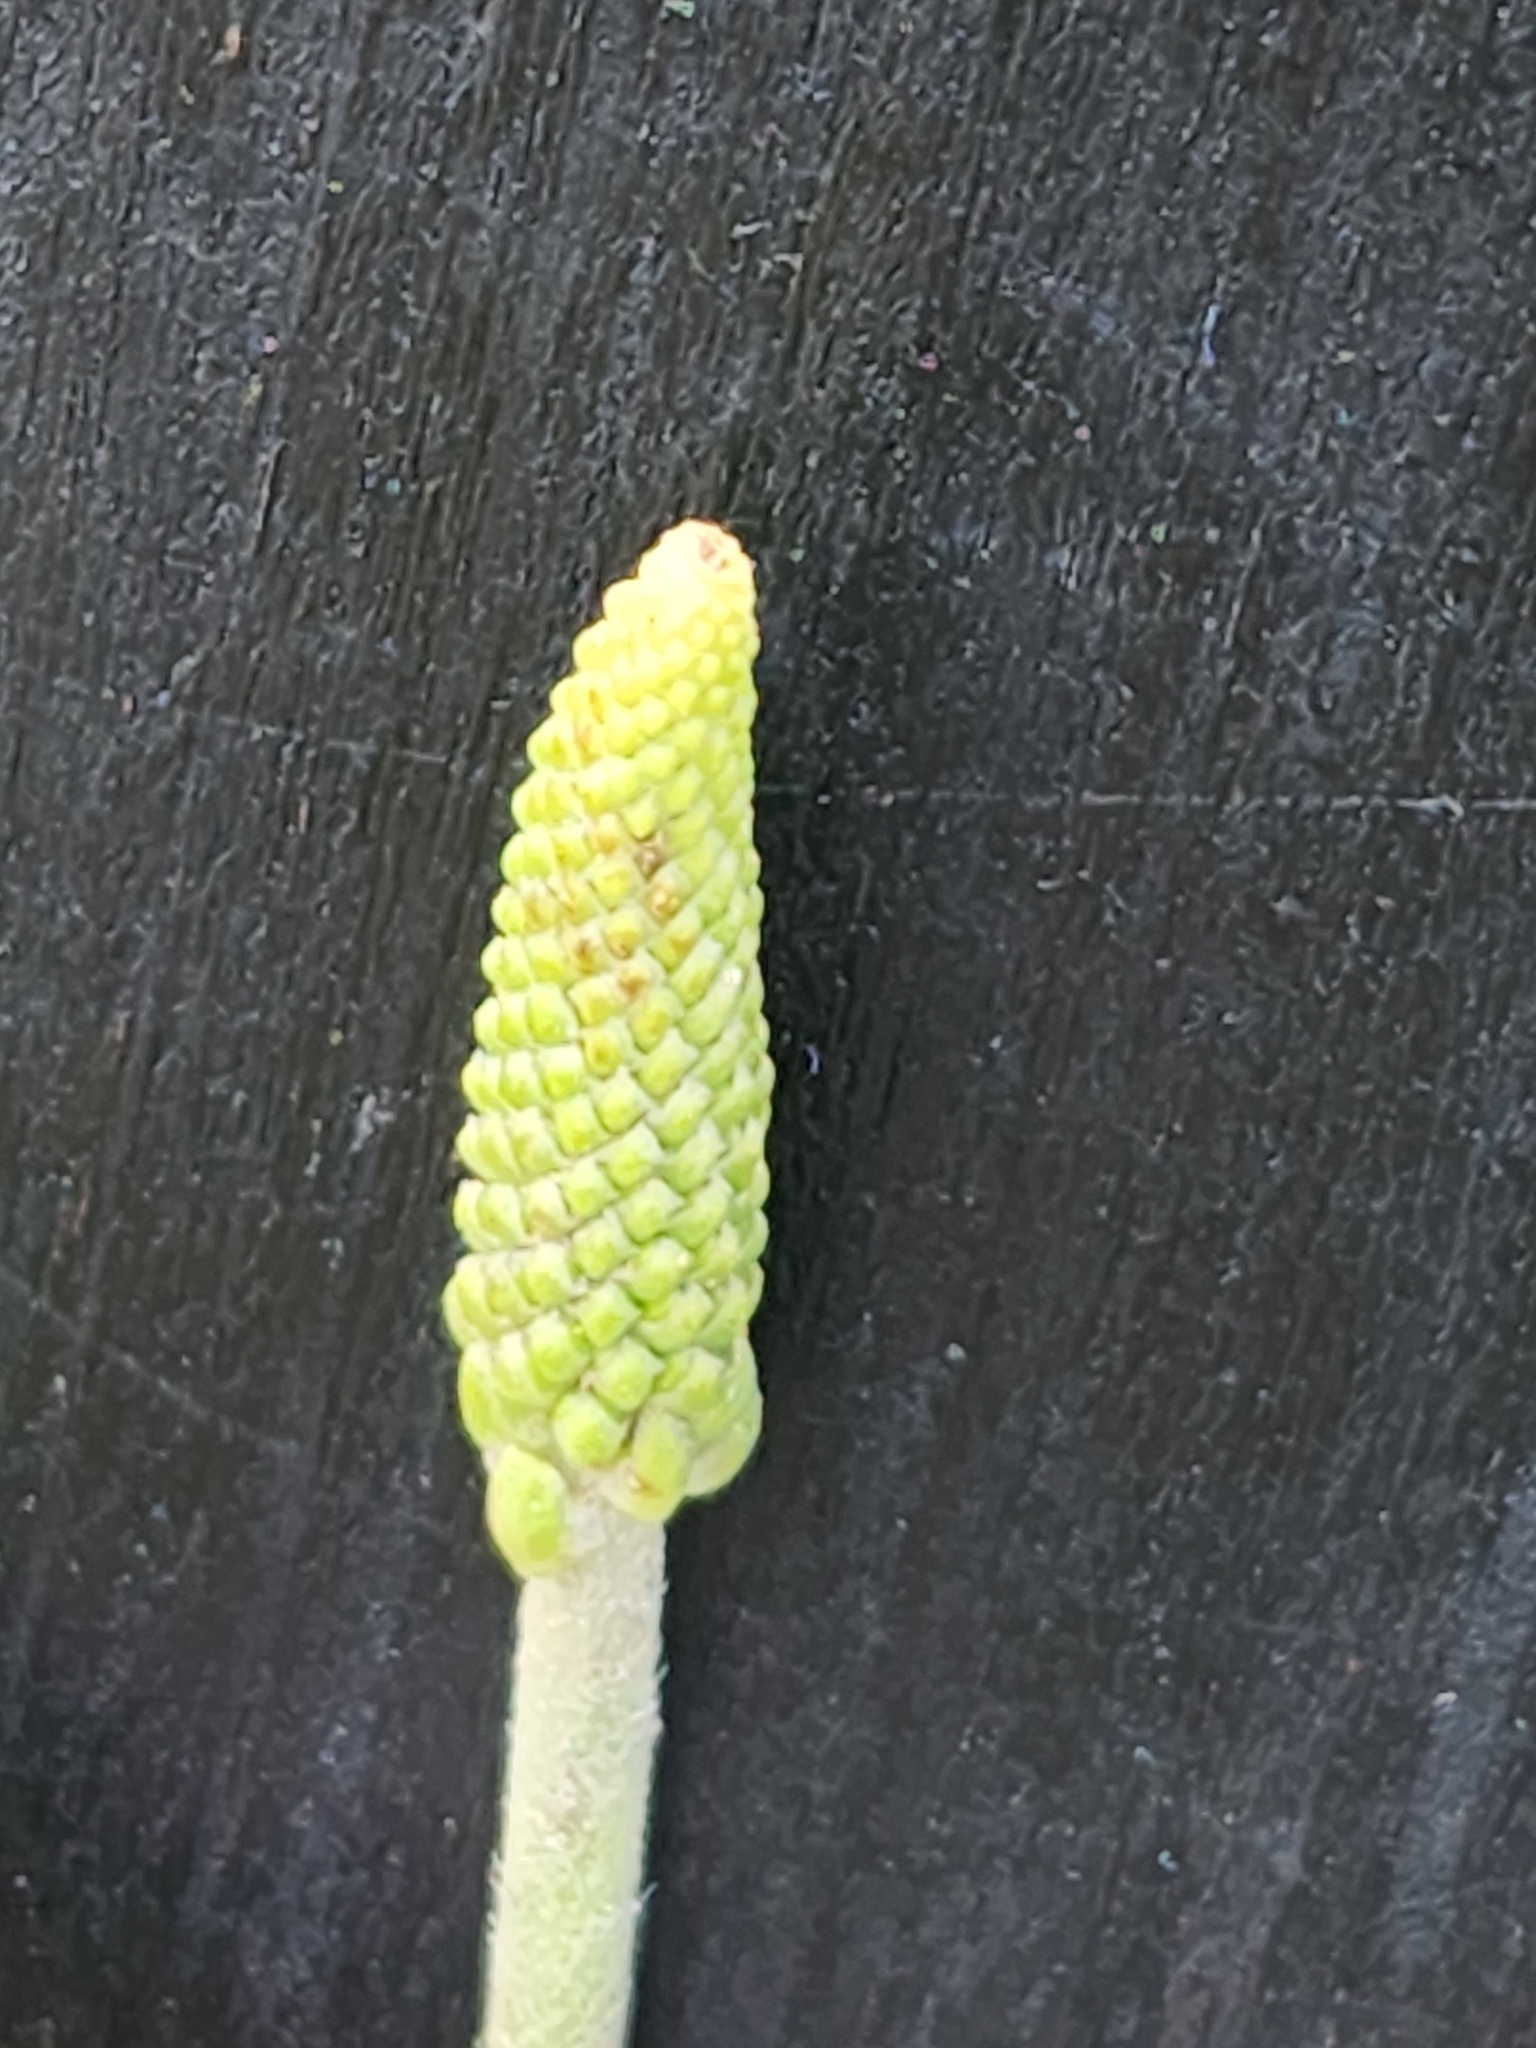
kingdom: Plantae
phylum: Tracheophyta
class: Magnoliopsida
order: Lamiales
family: Plantaginaceae
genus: Plantago
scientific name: Plantago rugelii
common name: American plantain
